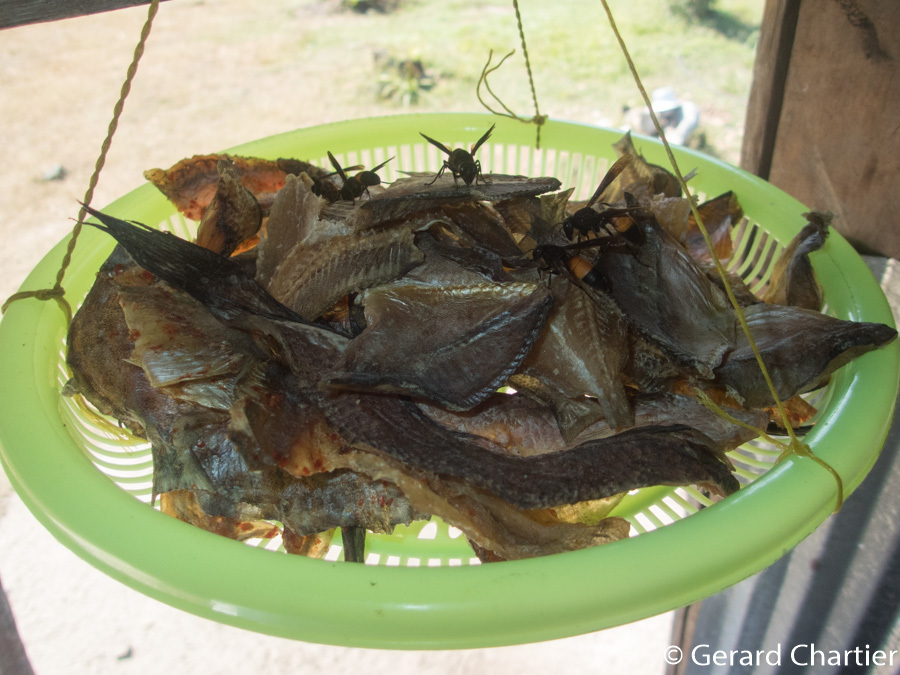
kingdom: Animalia
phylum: Arthropoda
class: Insecta
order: Hymenoptera
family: Vespidae
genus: Vespa
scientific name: Vespa affinis
